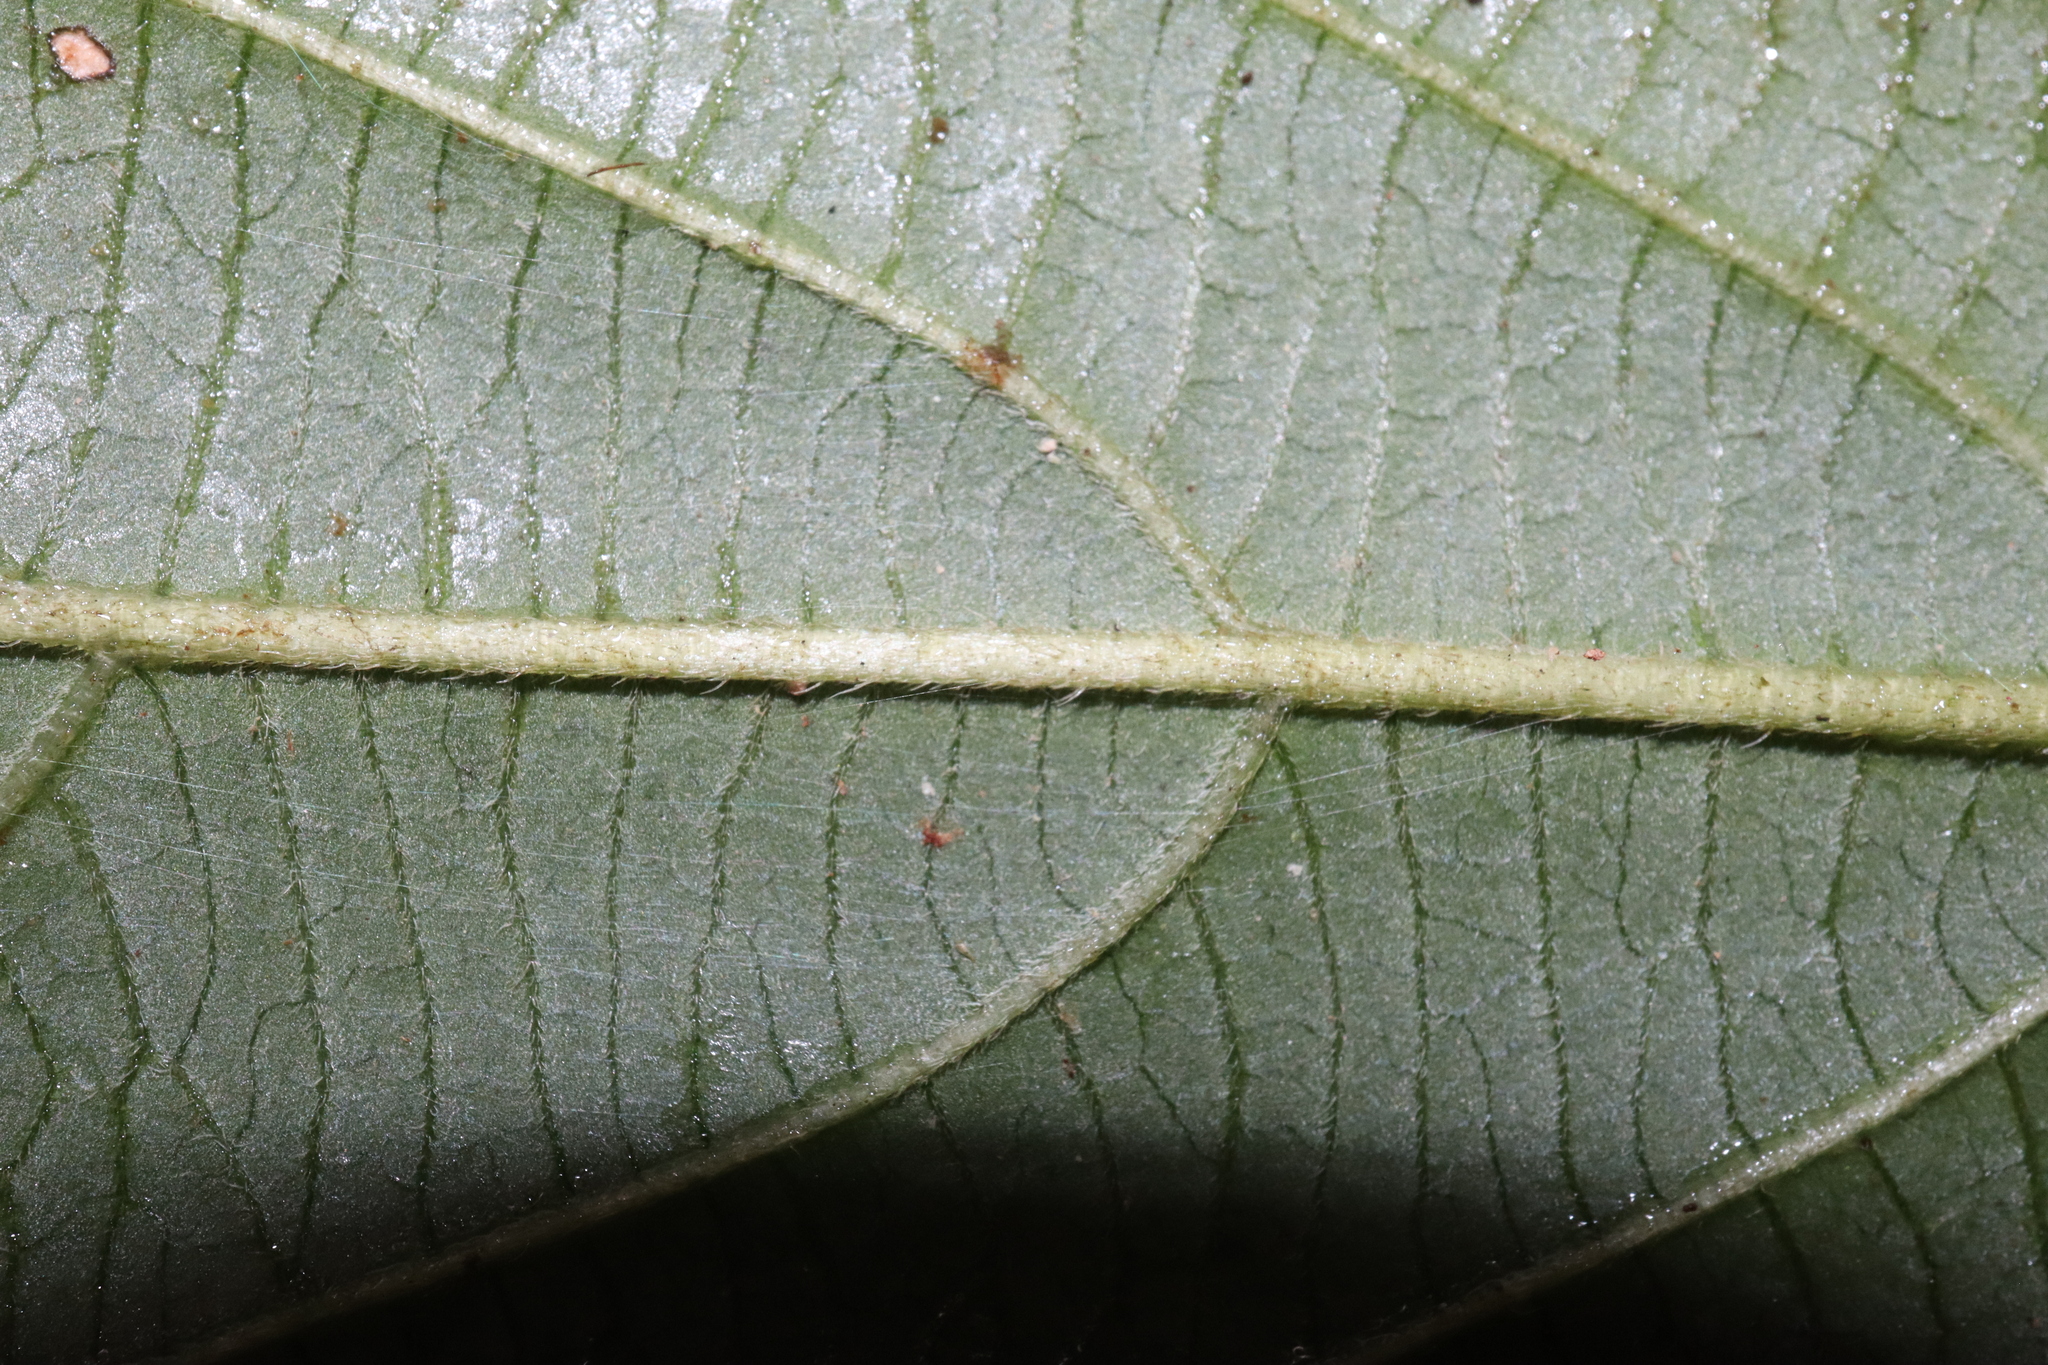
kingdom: Plantae
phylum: Tracheophyta
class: Magnoliopsida
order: Gentianales
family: Rubiaceae
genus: Lasianthus
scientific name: Lasianthus chlorocarpus
